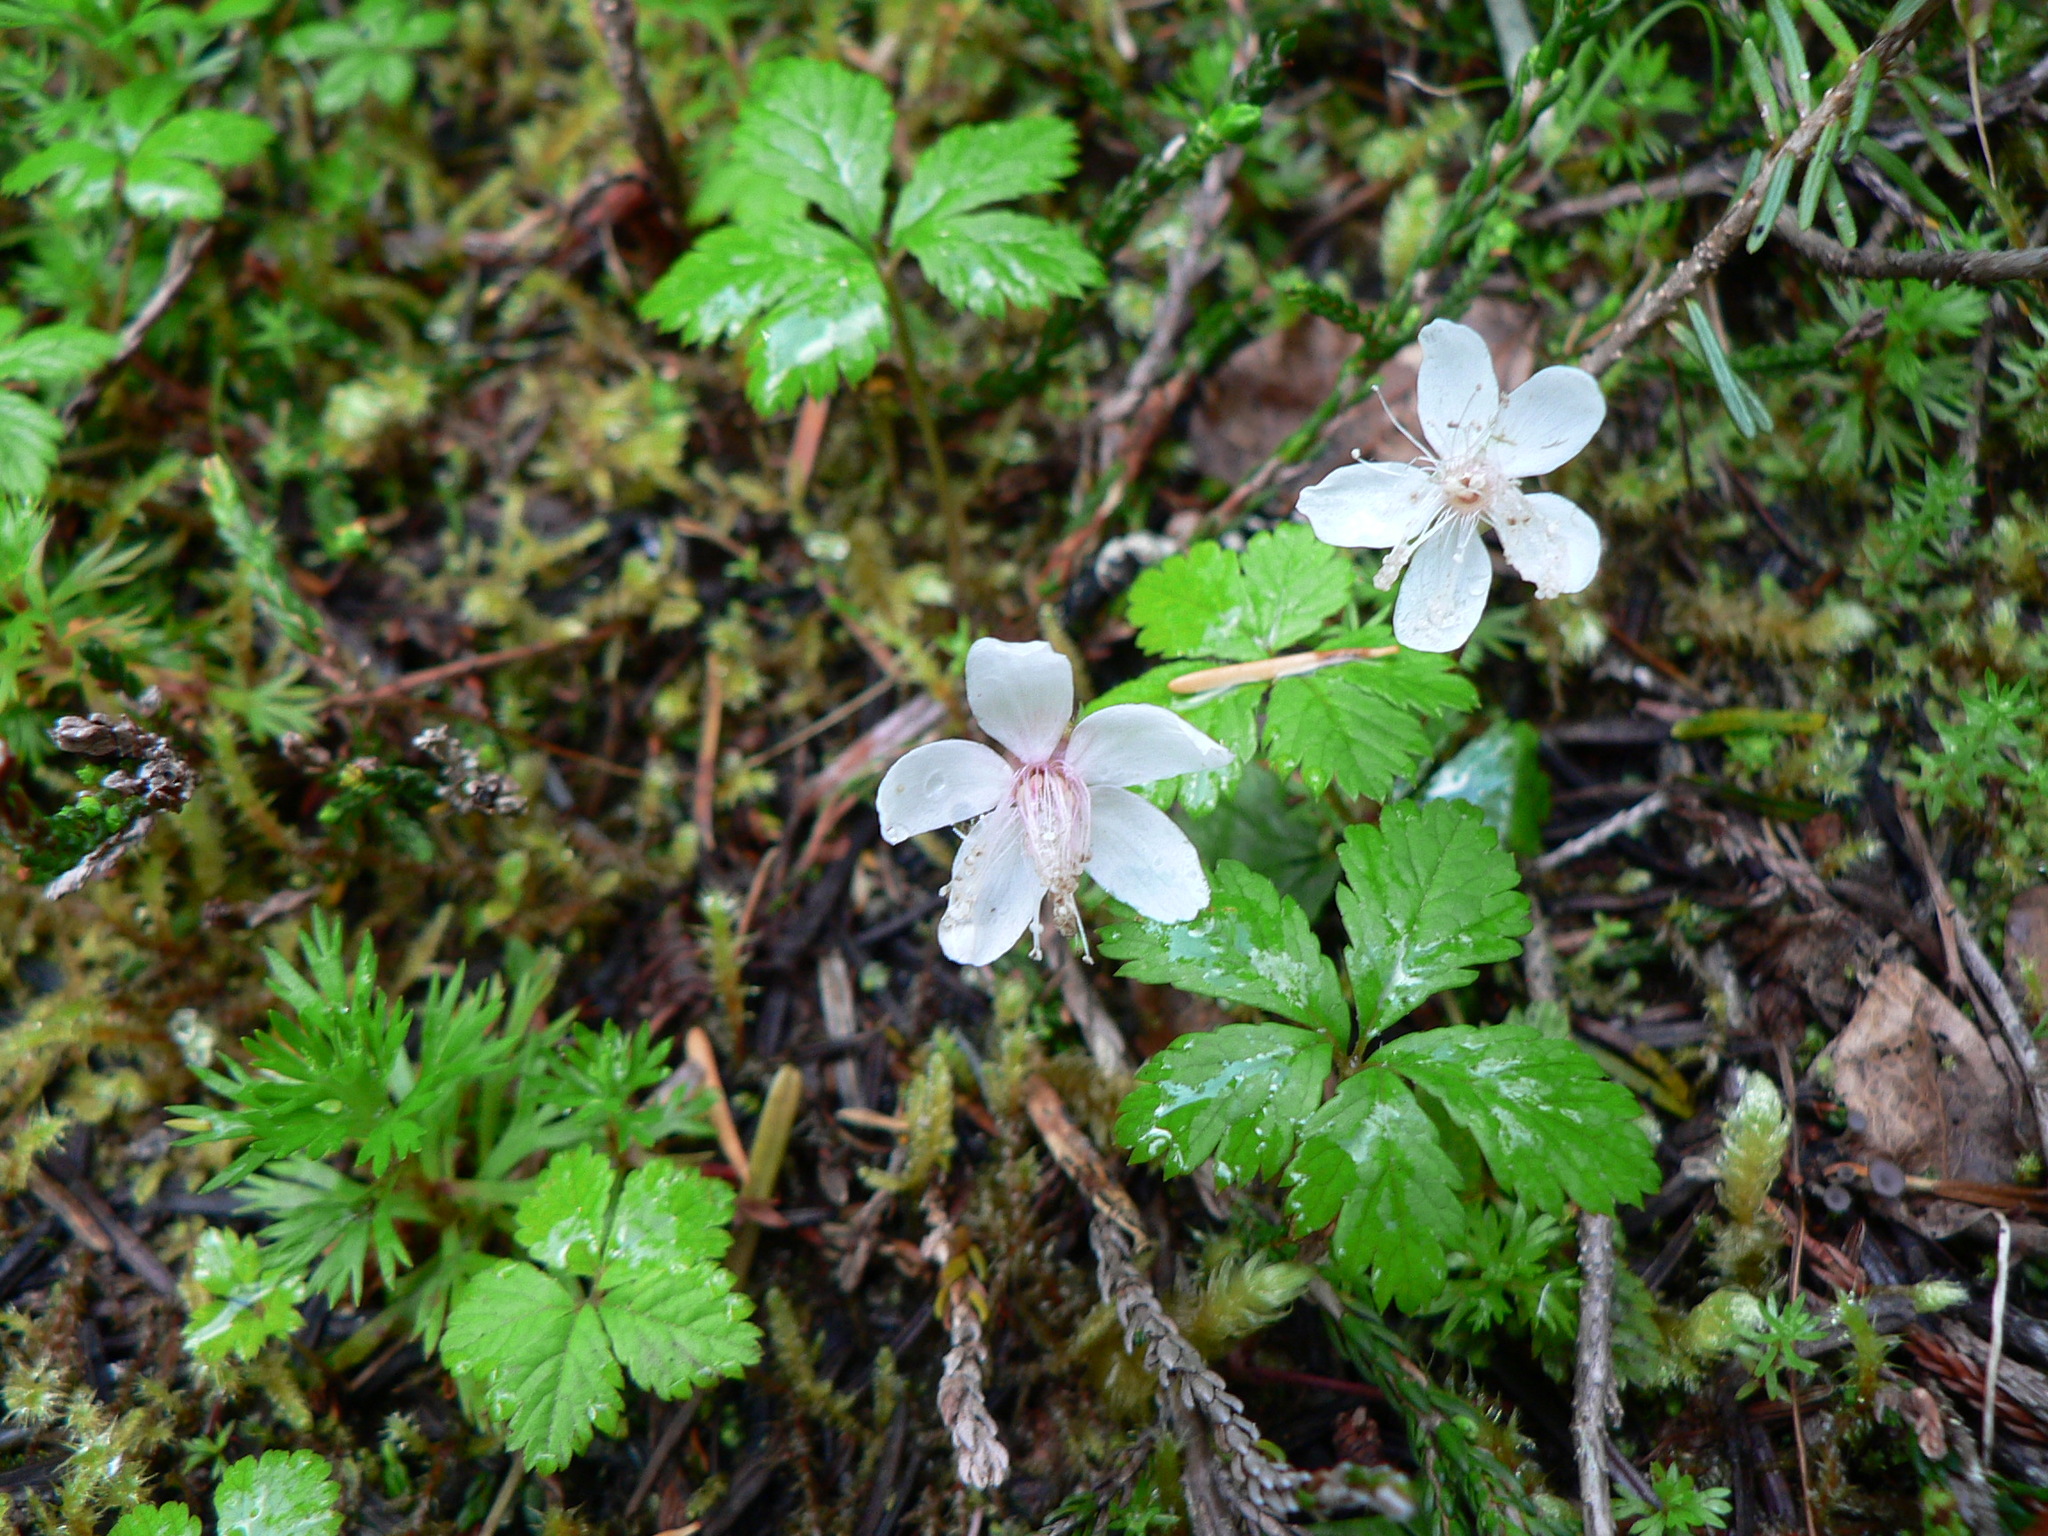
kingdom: Plantae
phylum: Tracheophyta
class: Magnoliopsida
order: Rosales
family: Rosaceae
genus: Rubus
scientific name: Rubus pedatus
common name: Creeping raspberry
